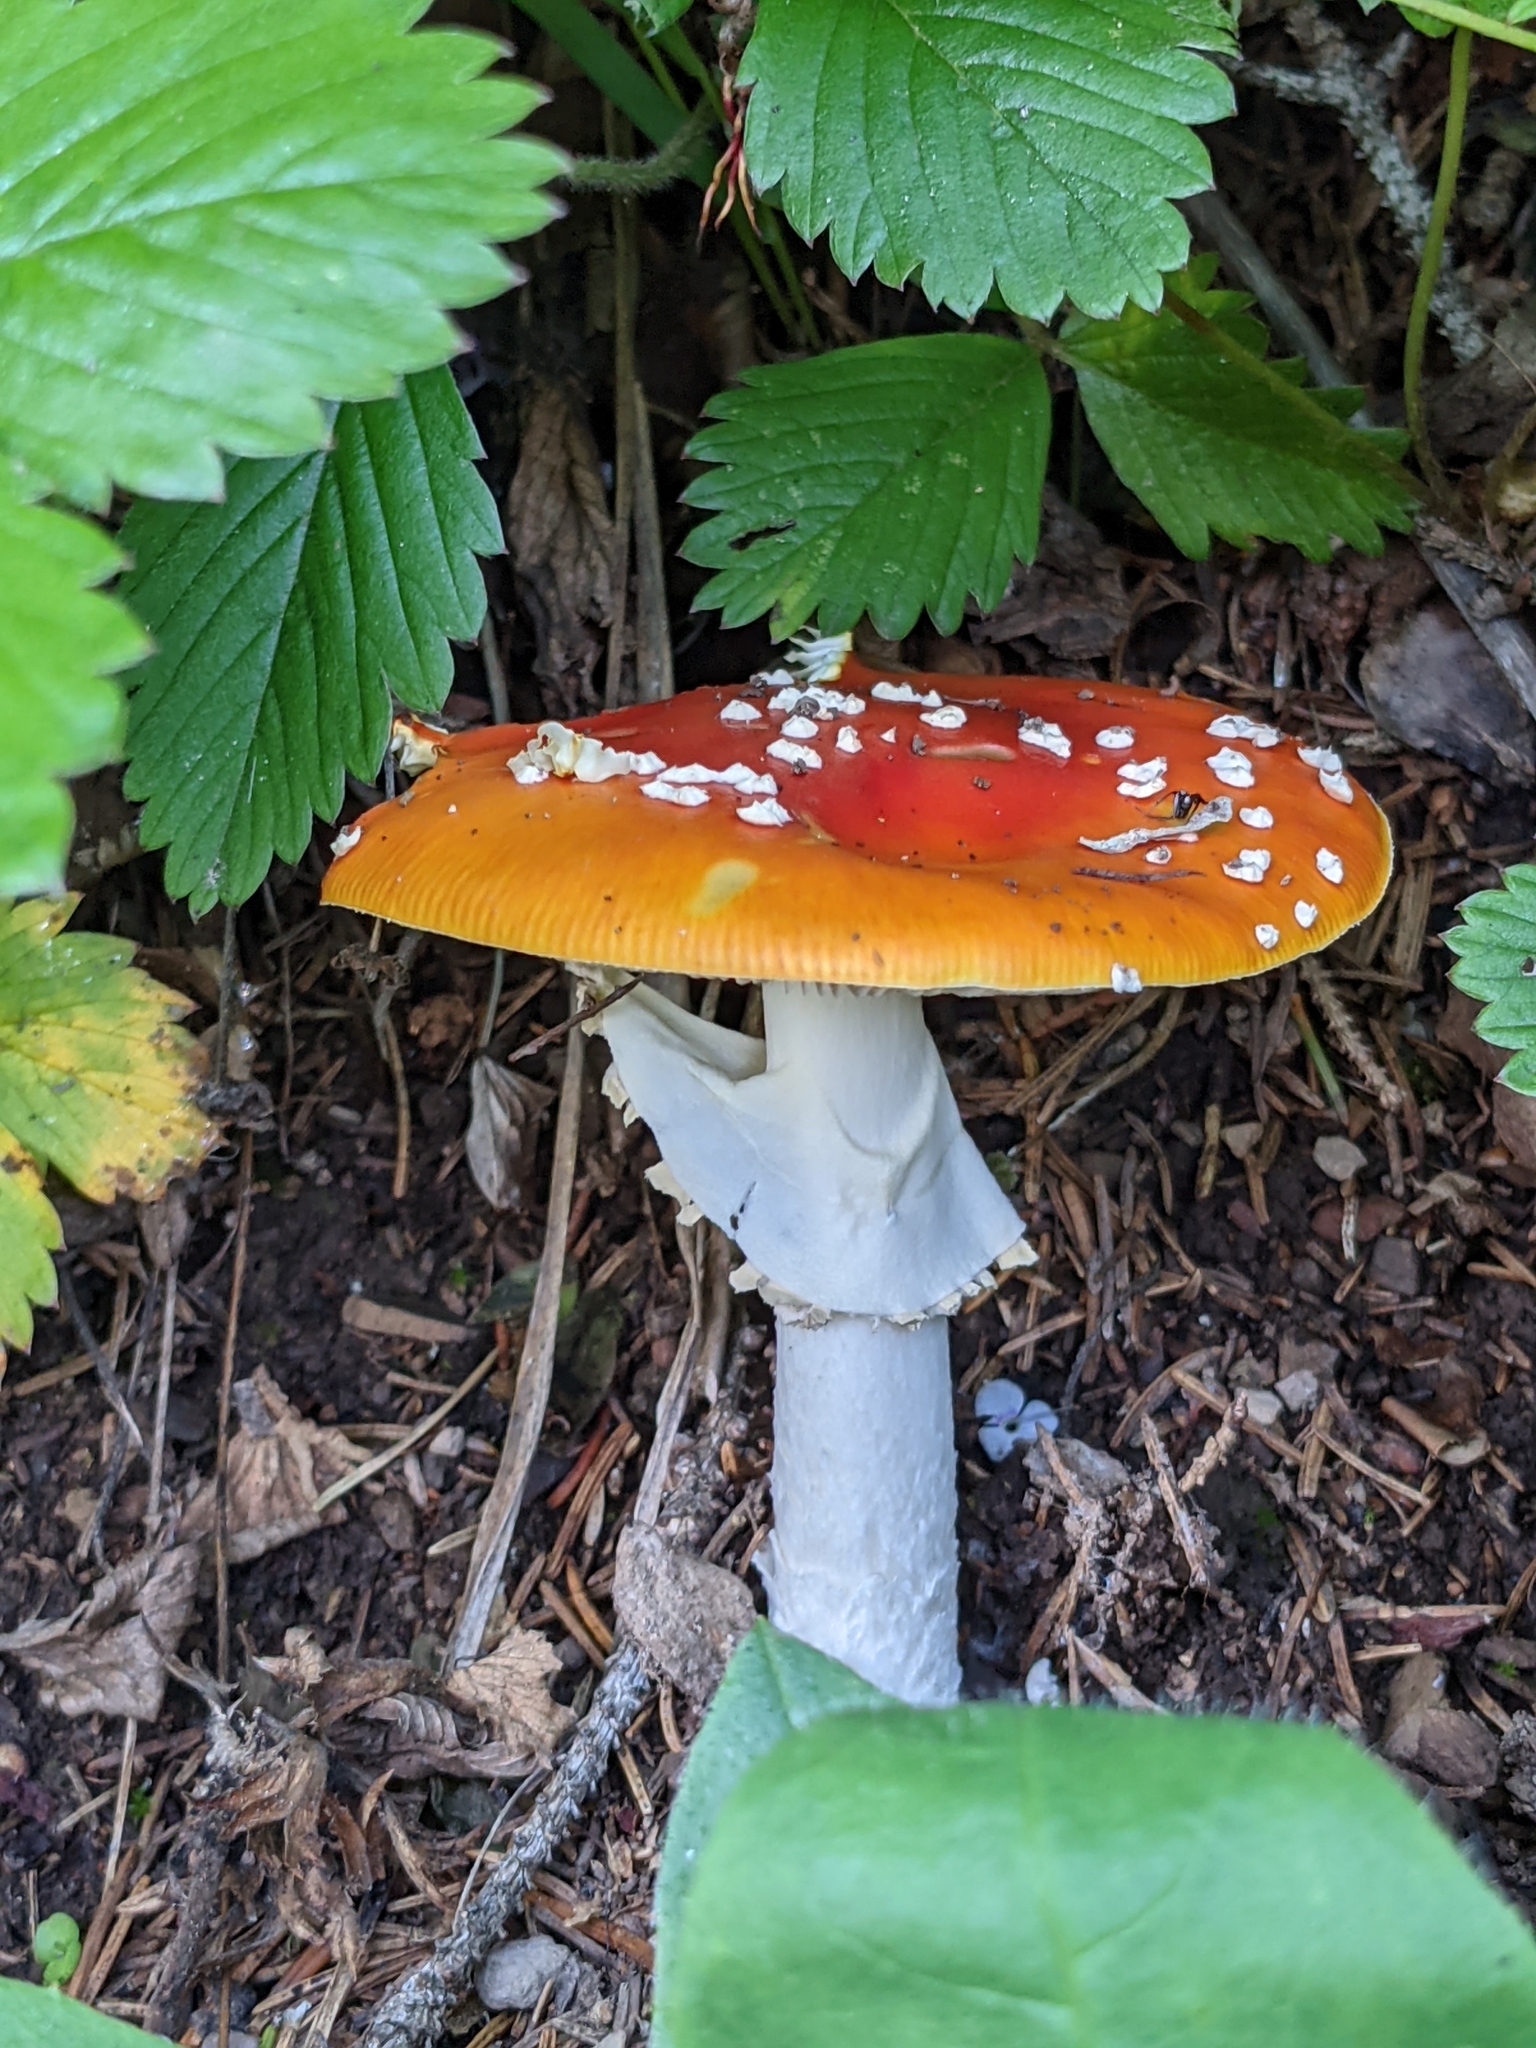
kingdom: Fungi
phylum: Basidiomycota
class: Agaricomycetes
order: Agaricales
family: Amanitaceae
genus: Amanita
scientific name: Amanita muscaria
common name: Fly agaric
